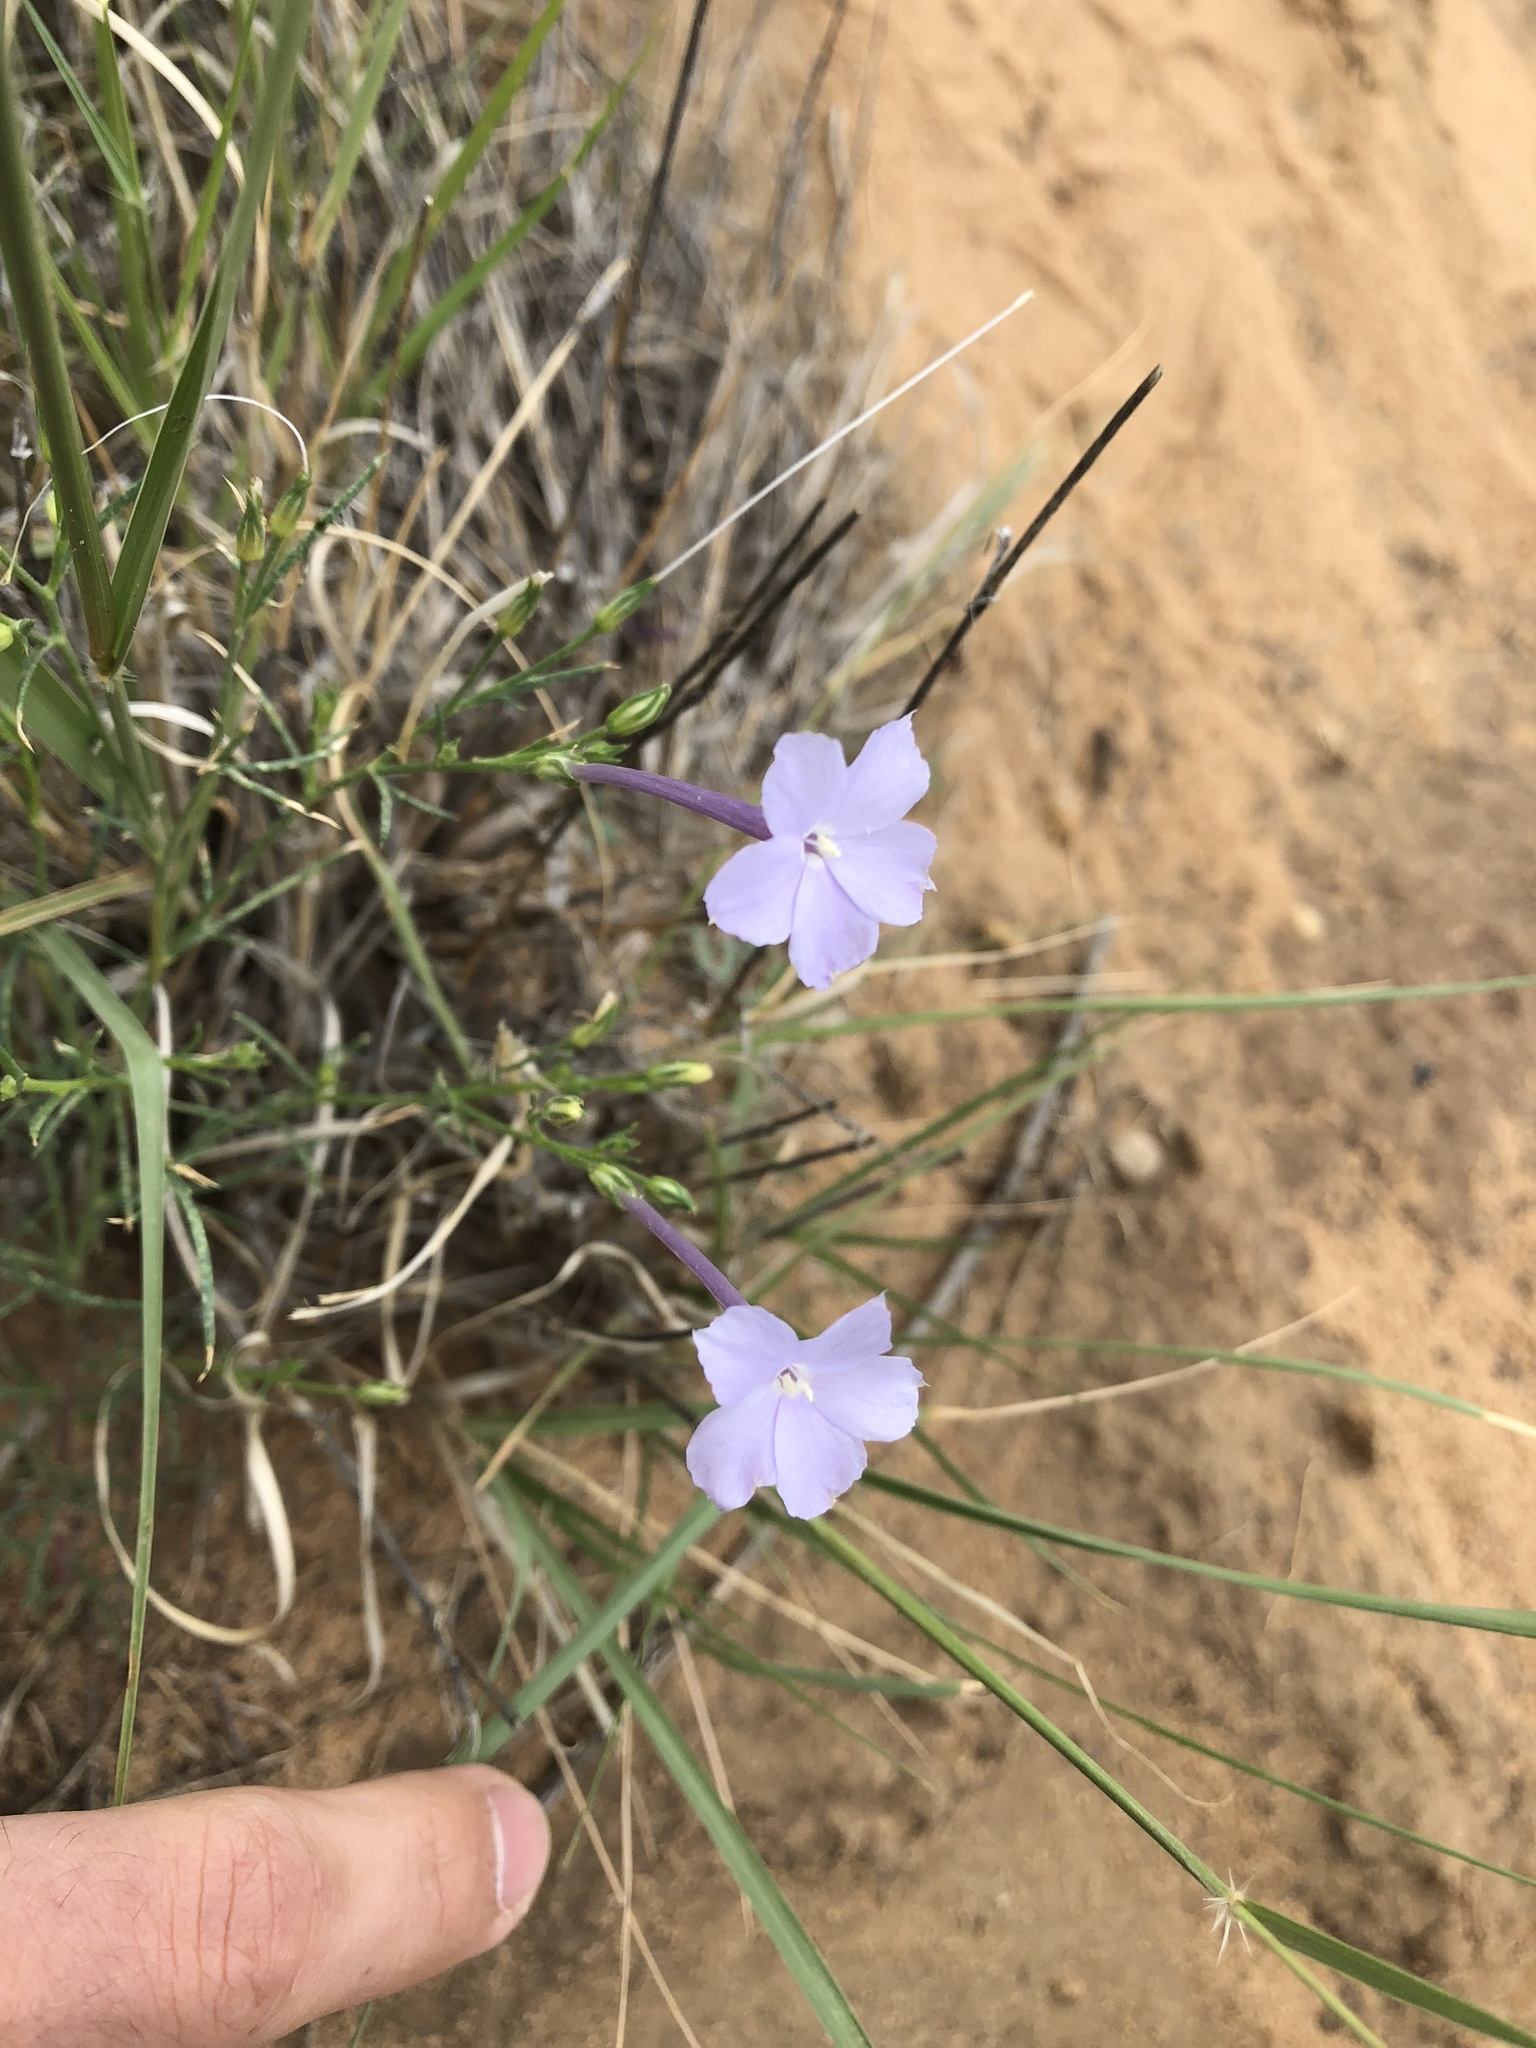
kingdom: Plantae
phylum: Tracheophyta
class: Magnoliopsida
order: Ericales
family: Polemoniaceae
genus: Ipomopsis
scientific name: Ipomopsis longiflora
